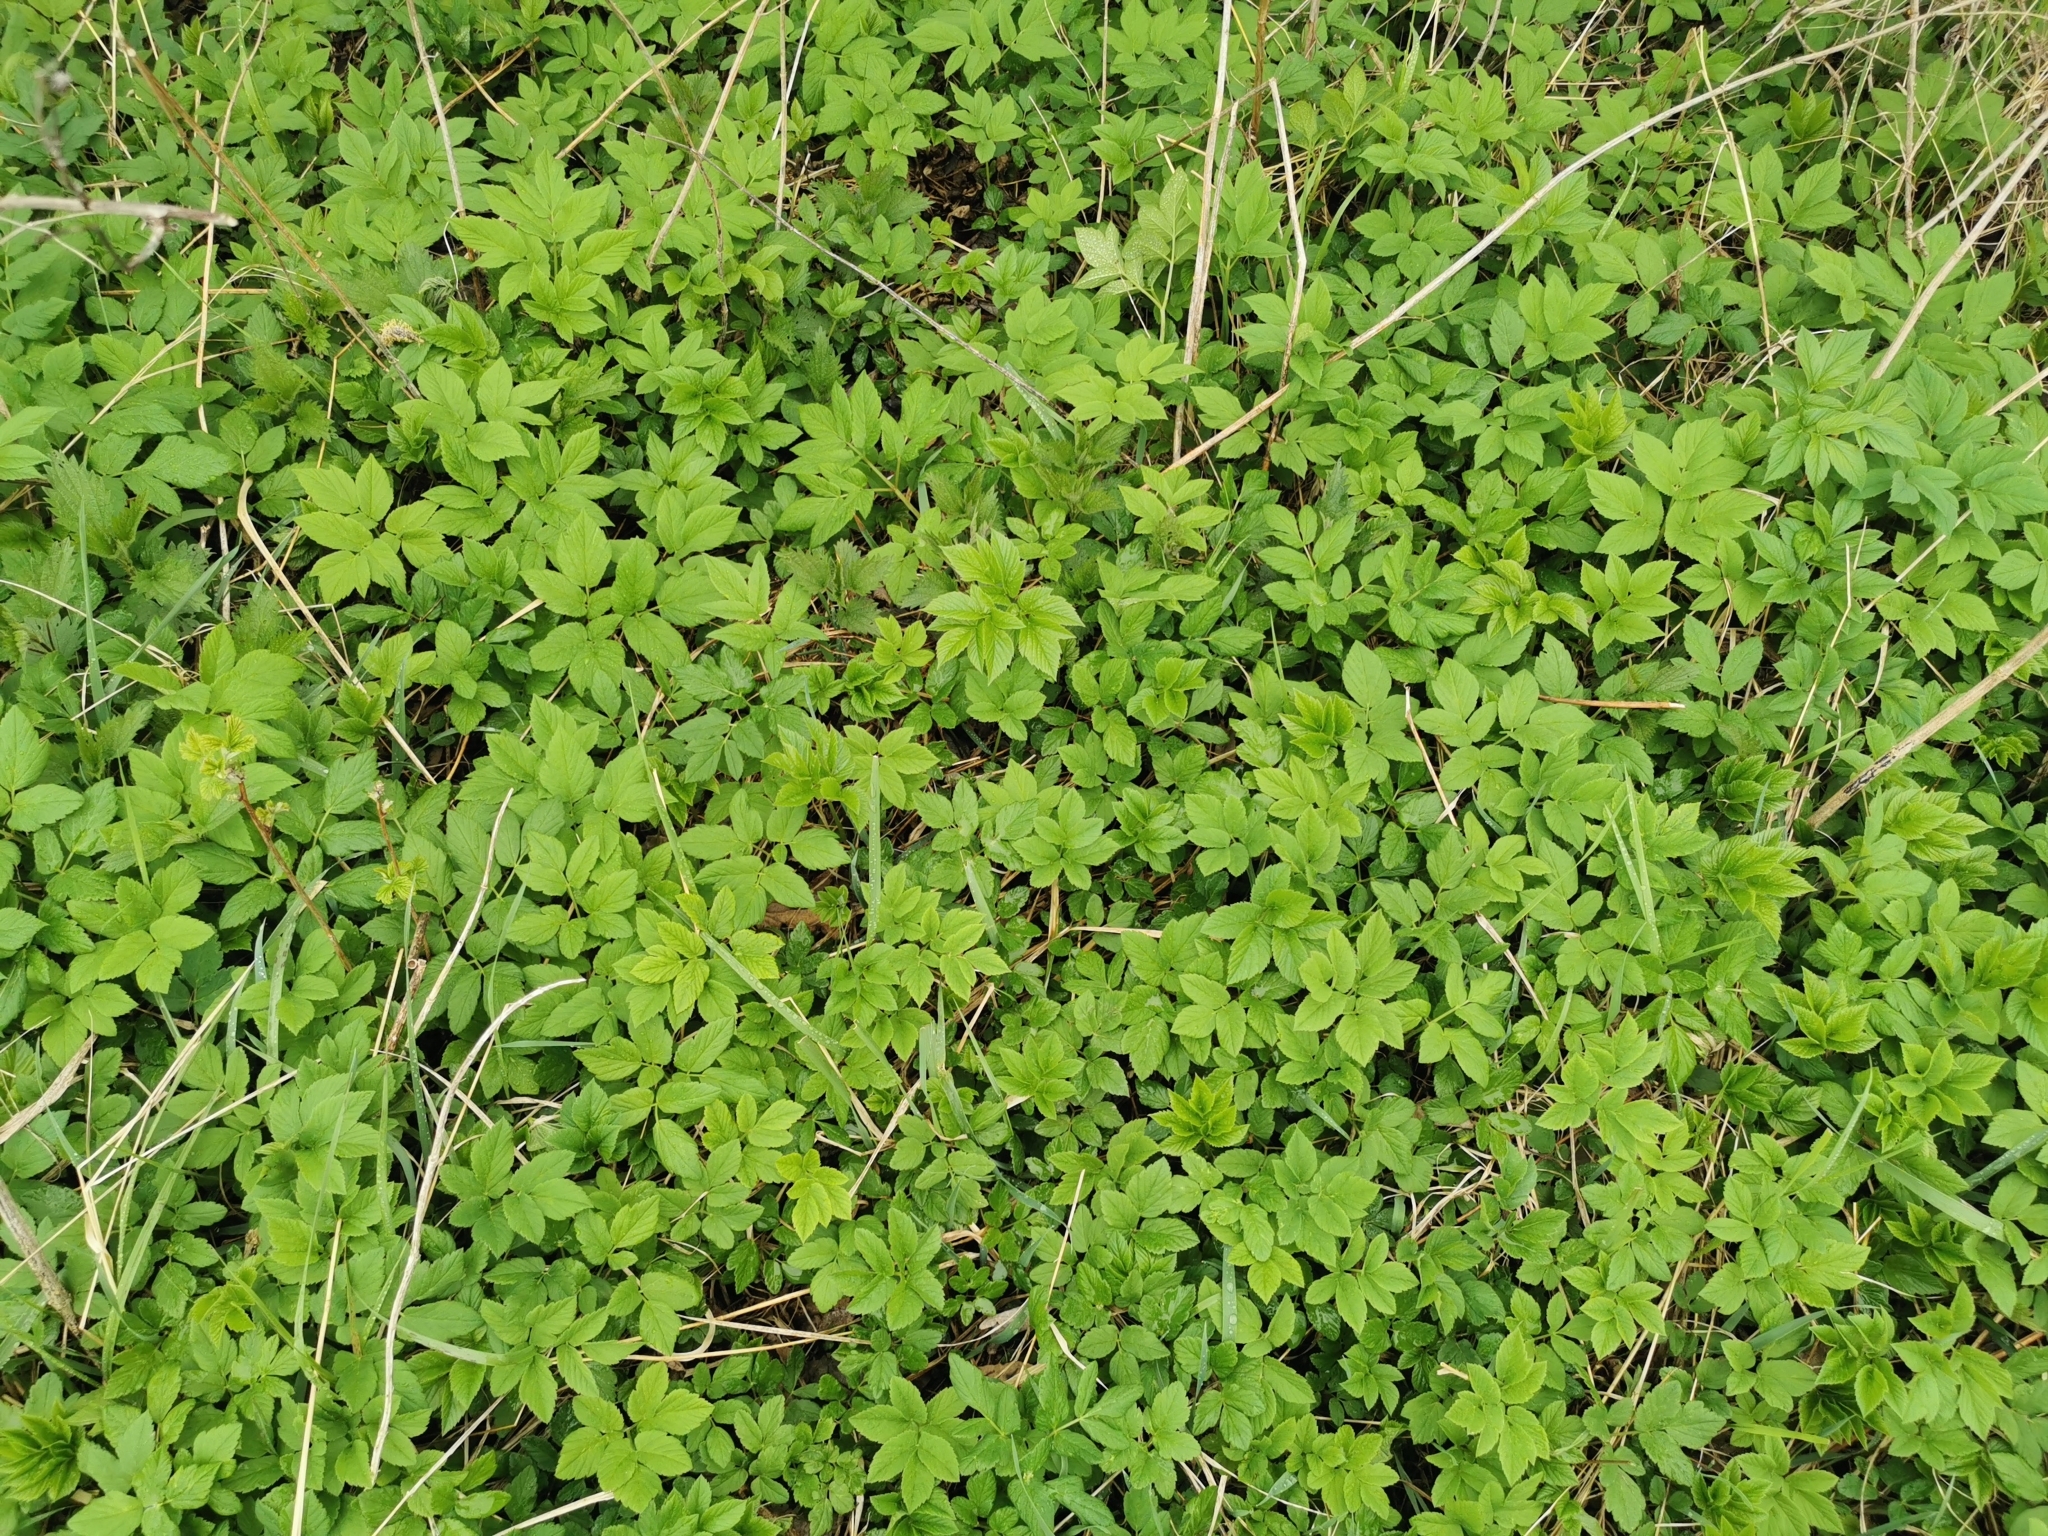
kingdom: Plantae
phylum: Tracheophyta
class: Magnoliopsida
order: Apiales
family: Apiaceae
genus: Aegopodium
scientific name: Aegopodium podagraria
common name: Ground-elder
